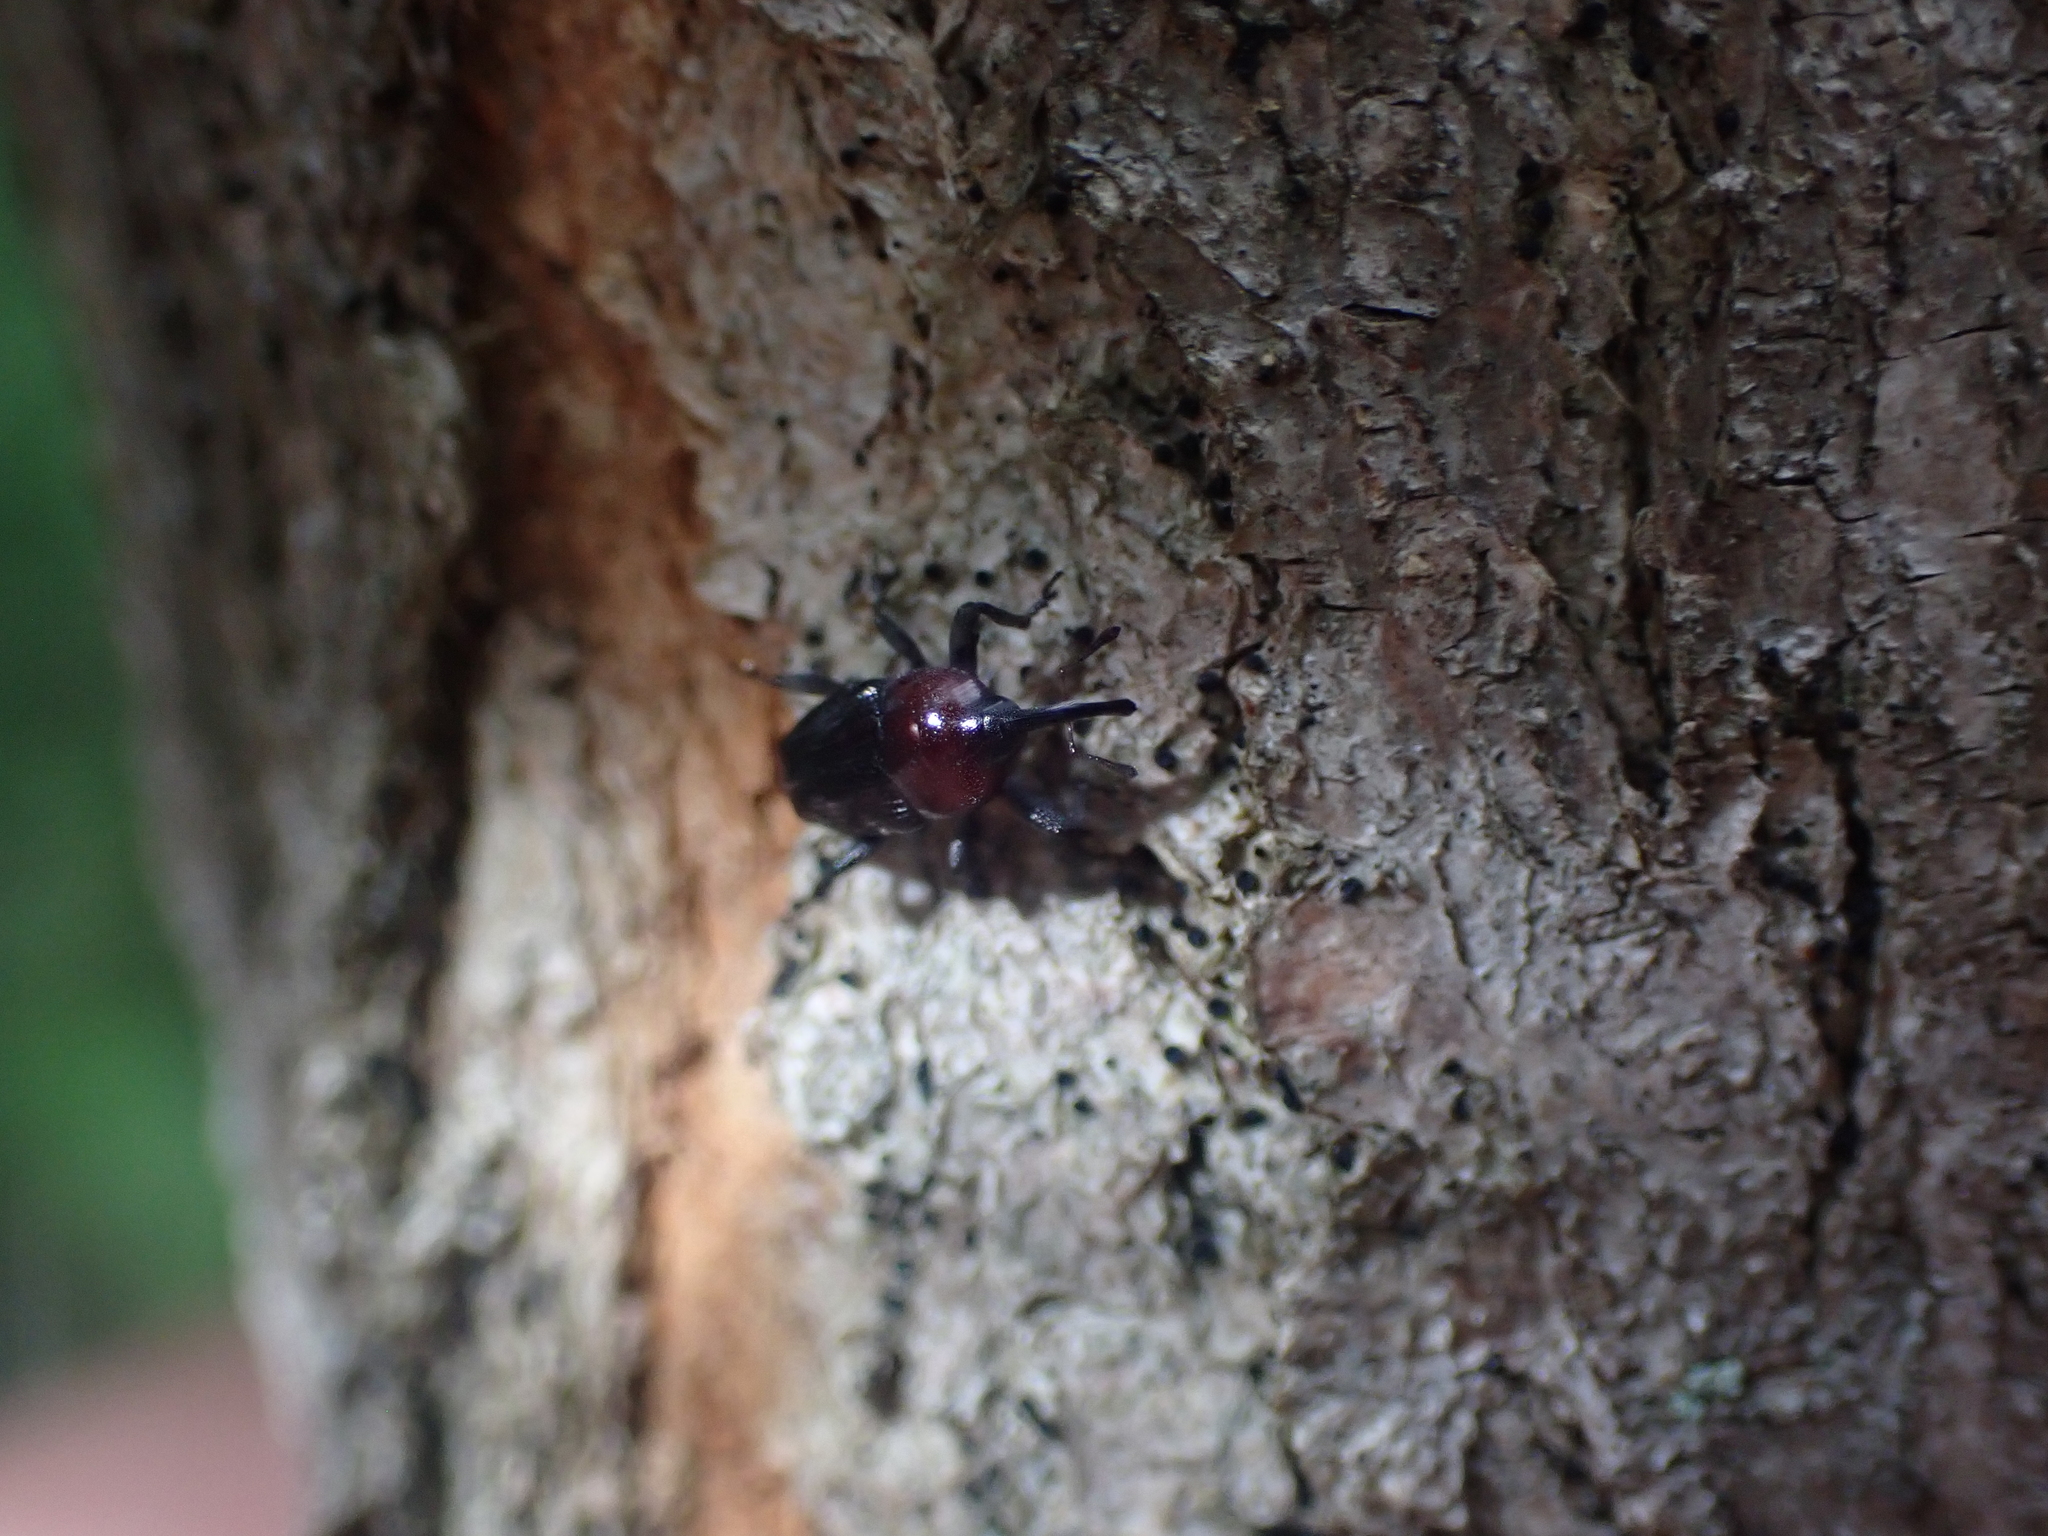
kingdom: Animalia
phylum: Arthropoda
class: Insecta
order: Coleoptera
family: Curculionidae
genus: Madarellus
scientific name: Madarellus undulatus
